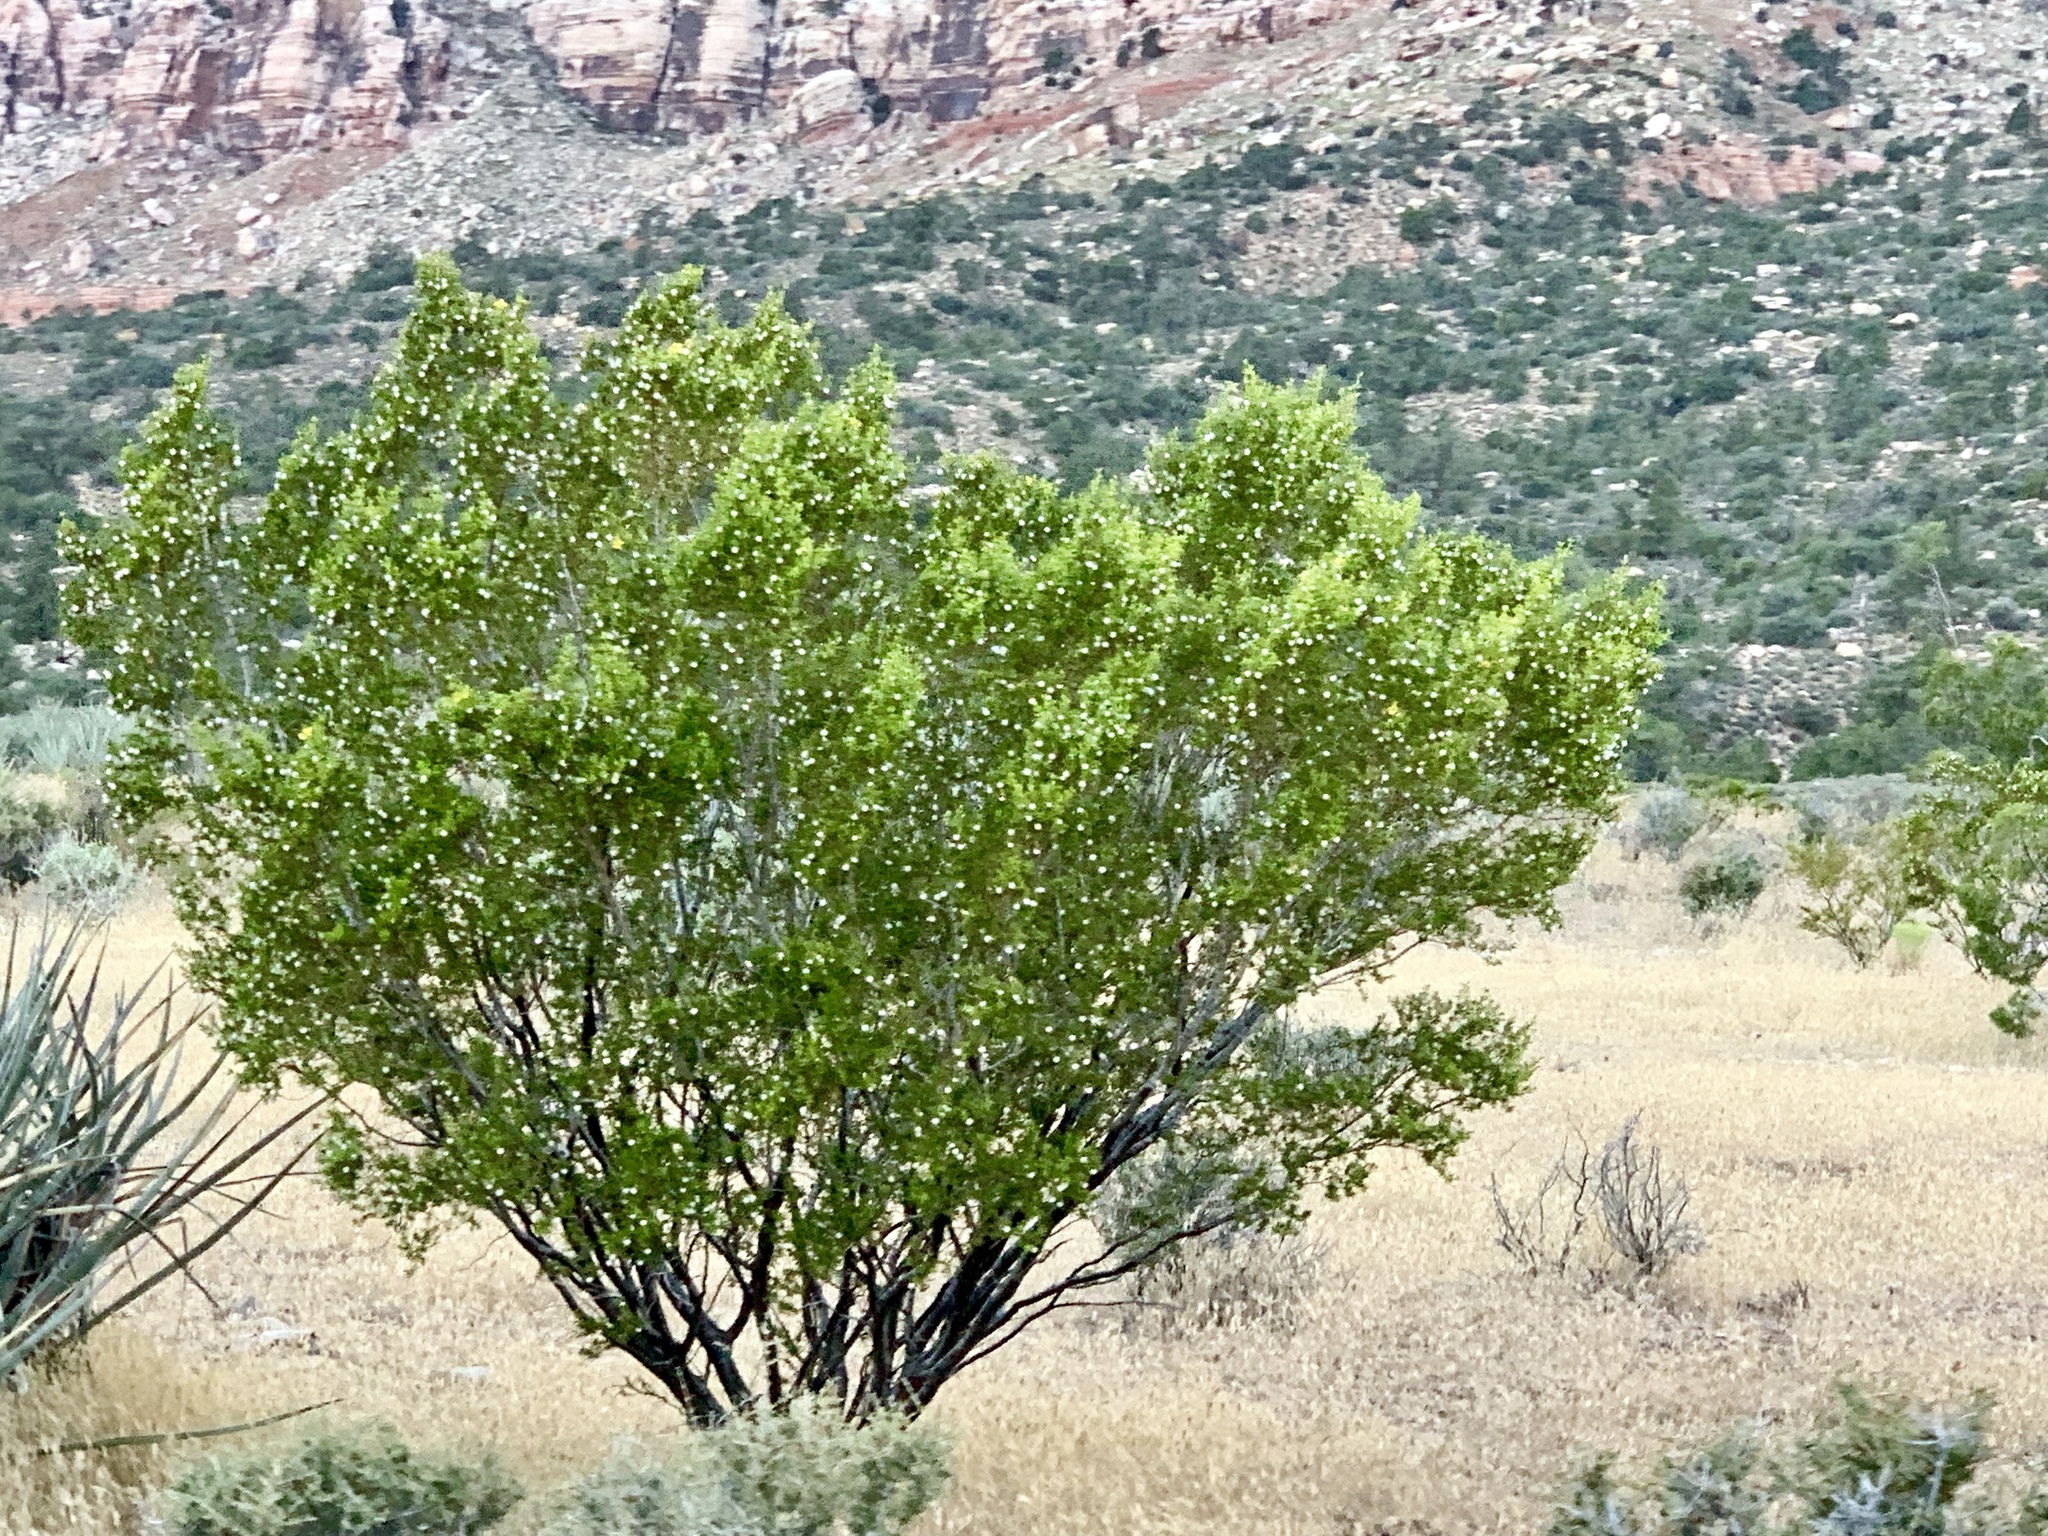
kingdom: Plantae
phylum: Tracheophyta
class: Magnoliopsida
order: Zygophyllales
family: Zygophyllaceae
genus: Larrea
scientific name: Larrea tridentata
